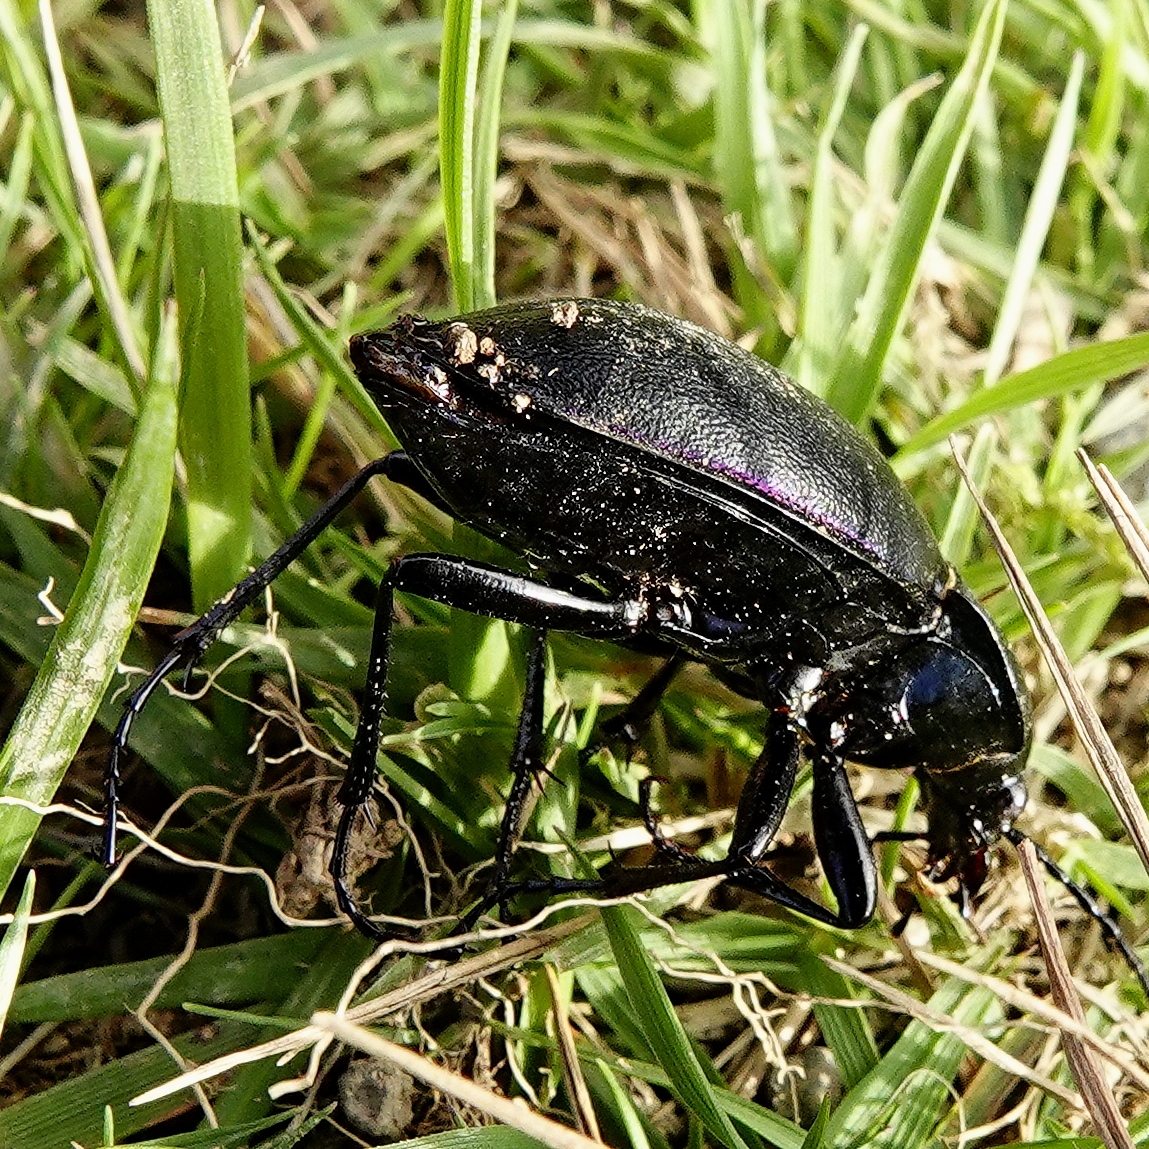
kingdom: Animalia
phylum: Arthropoda
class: Insecta
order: Coleoptera
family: Carabidae
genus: Carabus
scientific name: Carabus violaceus
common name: Violet ground beetle
